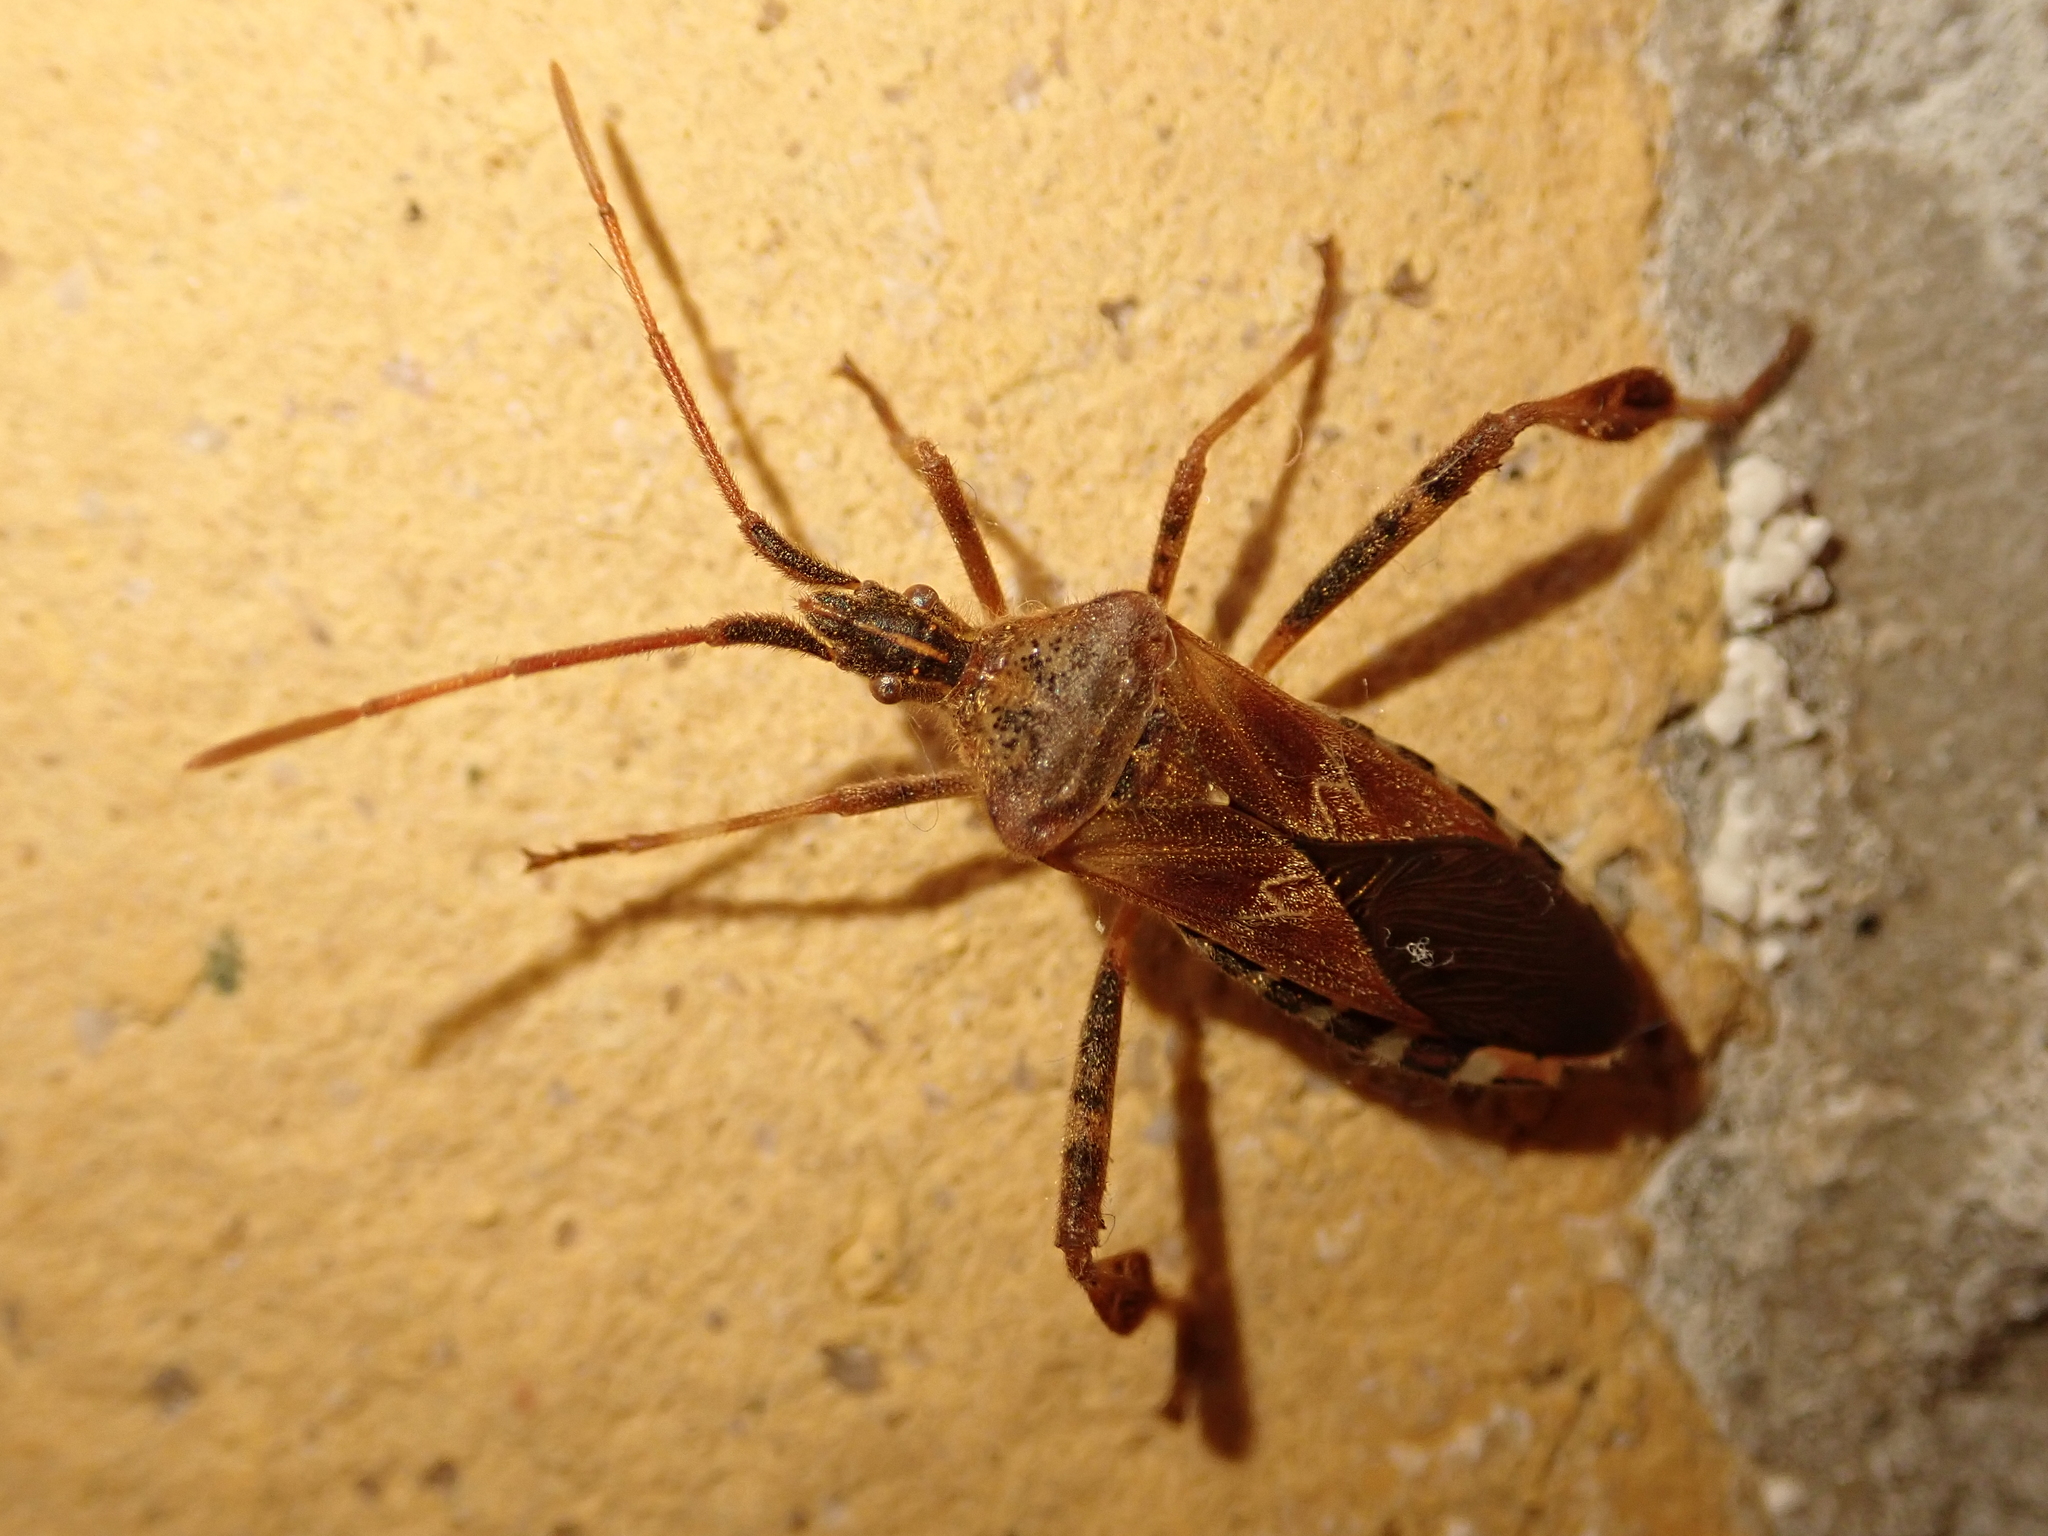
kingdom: Animalia
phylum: Arthropoda
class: Insecta
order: Hemiptera
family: Coreidae
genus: Leptoglossus
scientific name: Leptoglossus occidentalis
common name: Western conifer-seed bug
